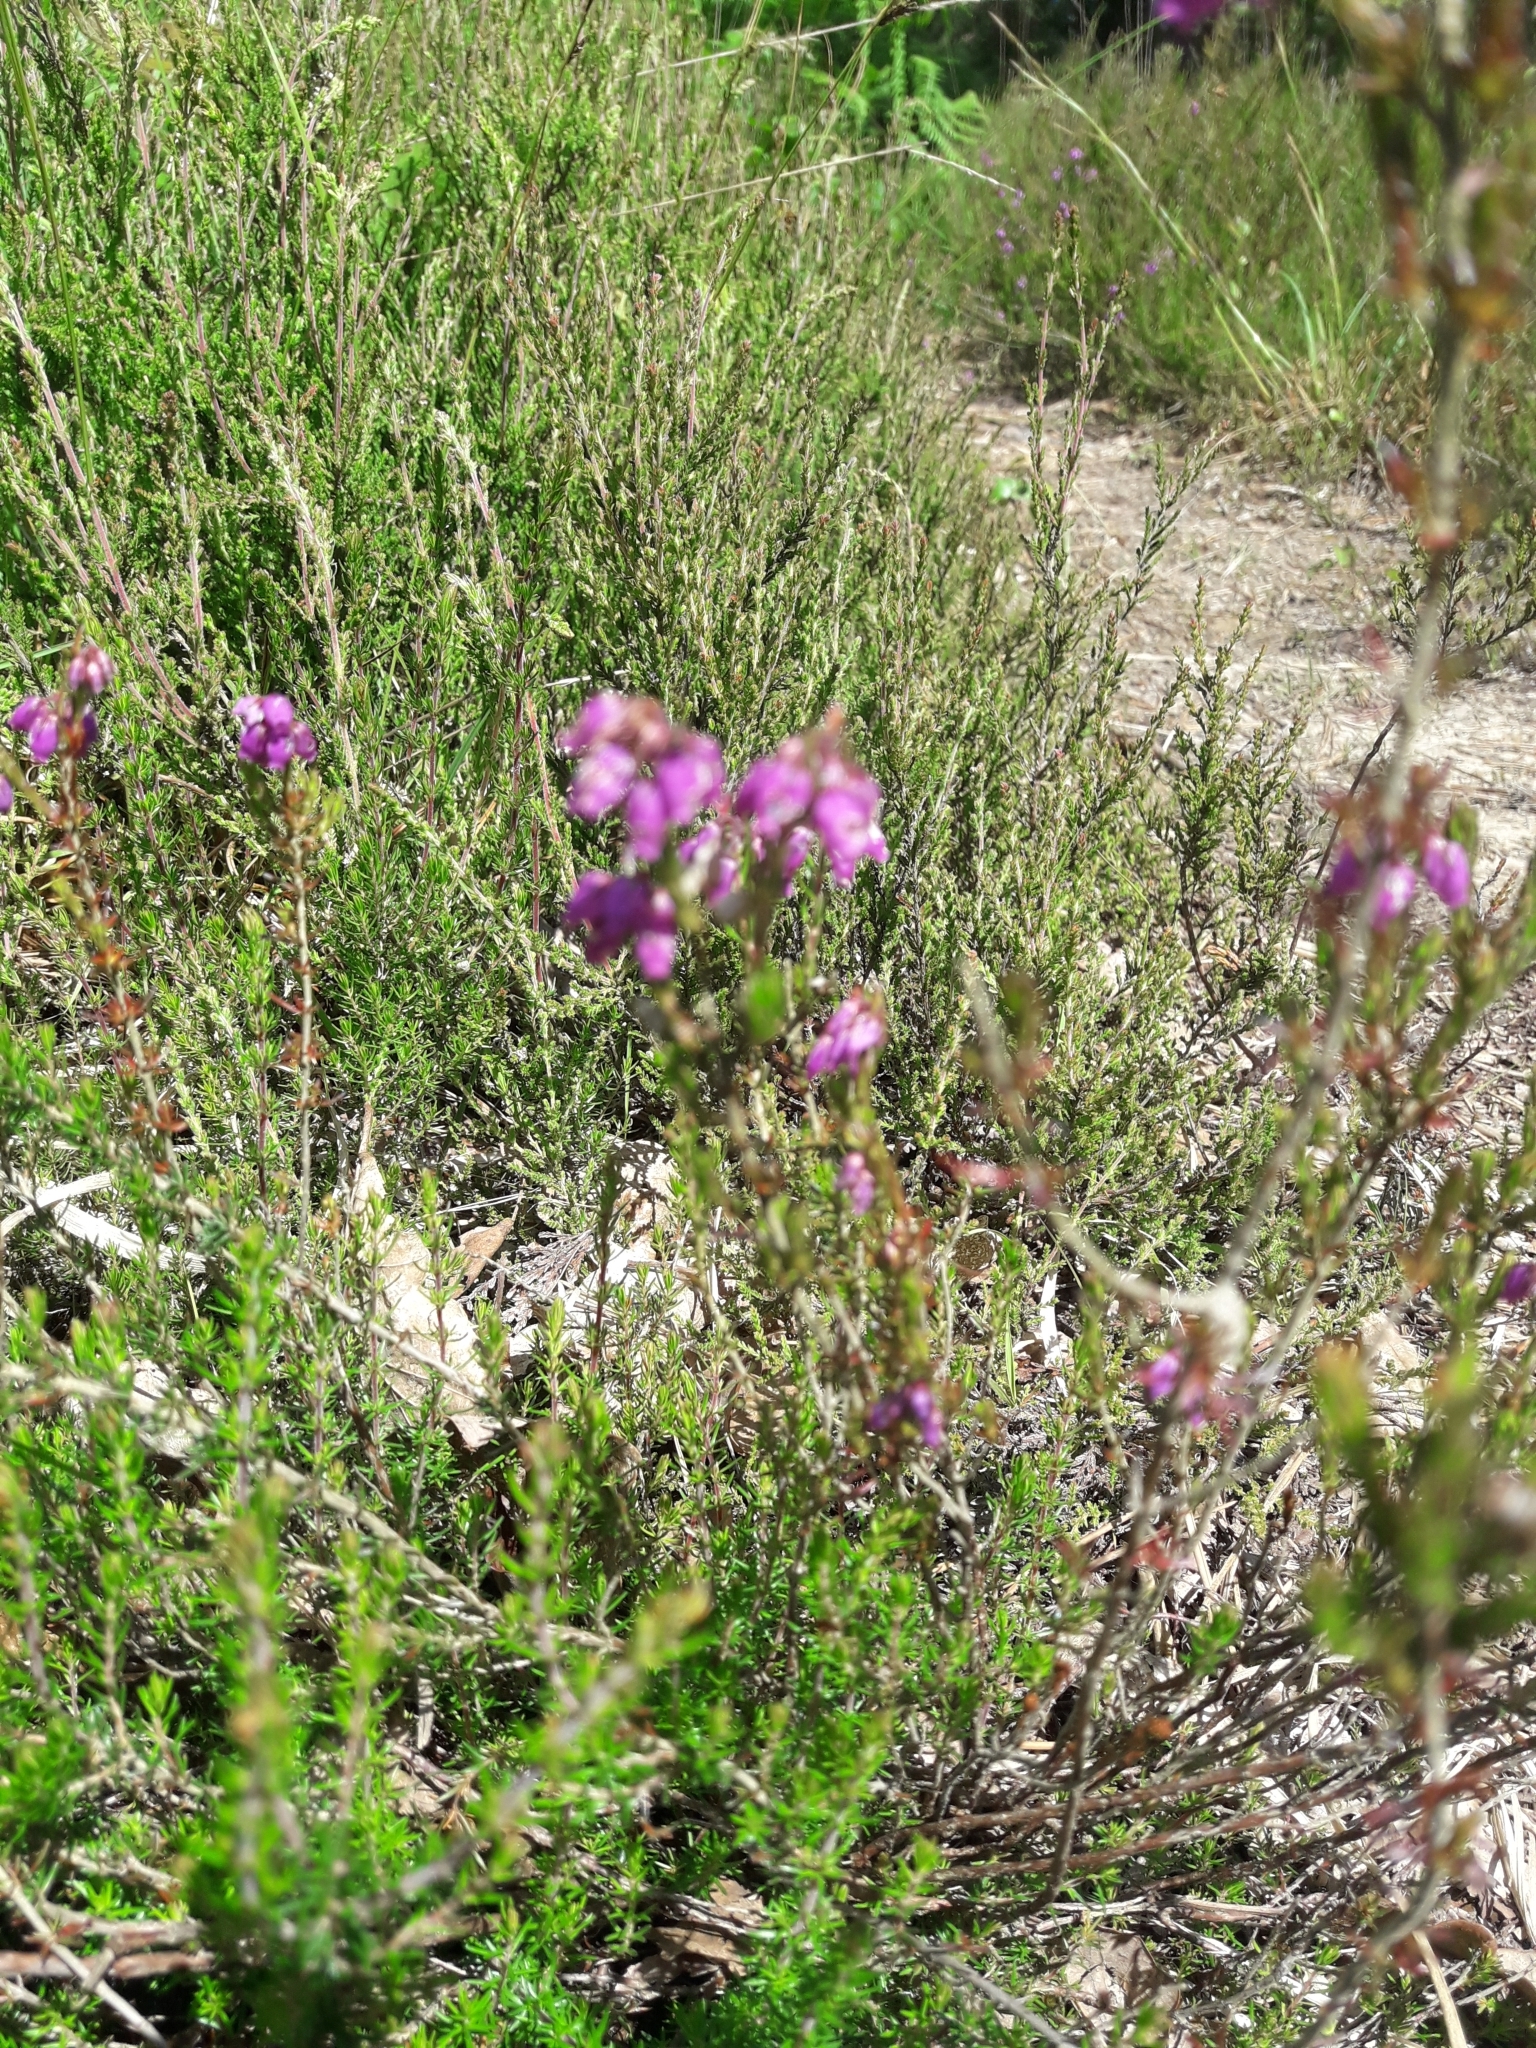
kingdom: Plantae
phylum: Tracheophyta
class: Magnoliopsida
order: Ericales
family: Ericaceae
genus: Erica
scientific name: Erica cinerea
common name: Bell heather
